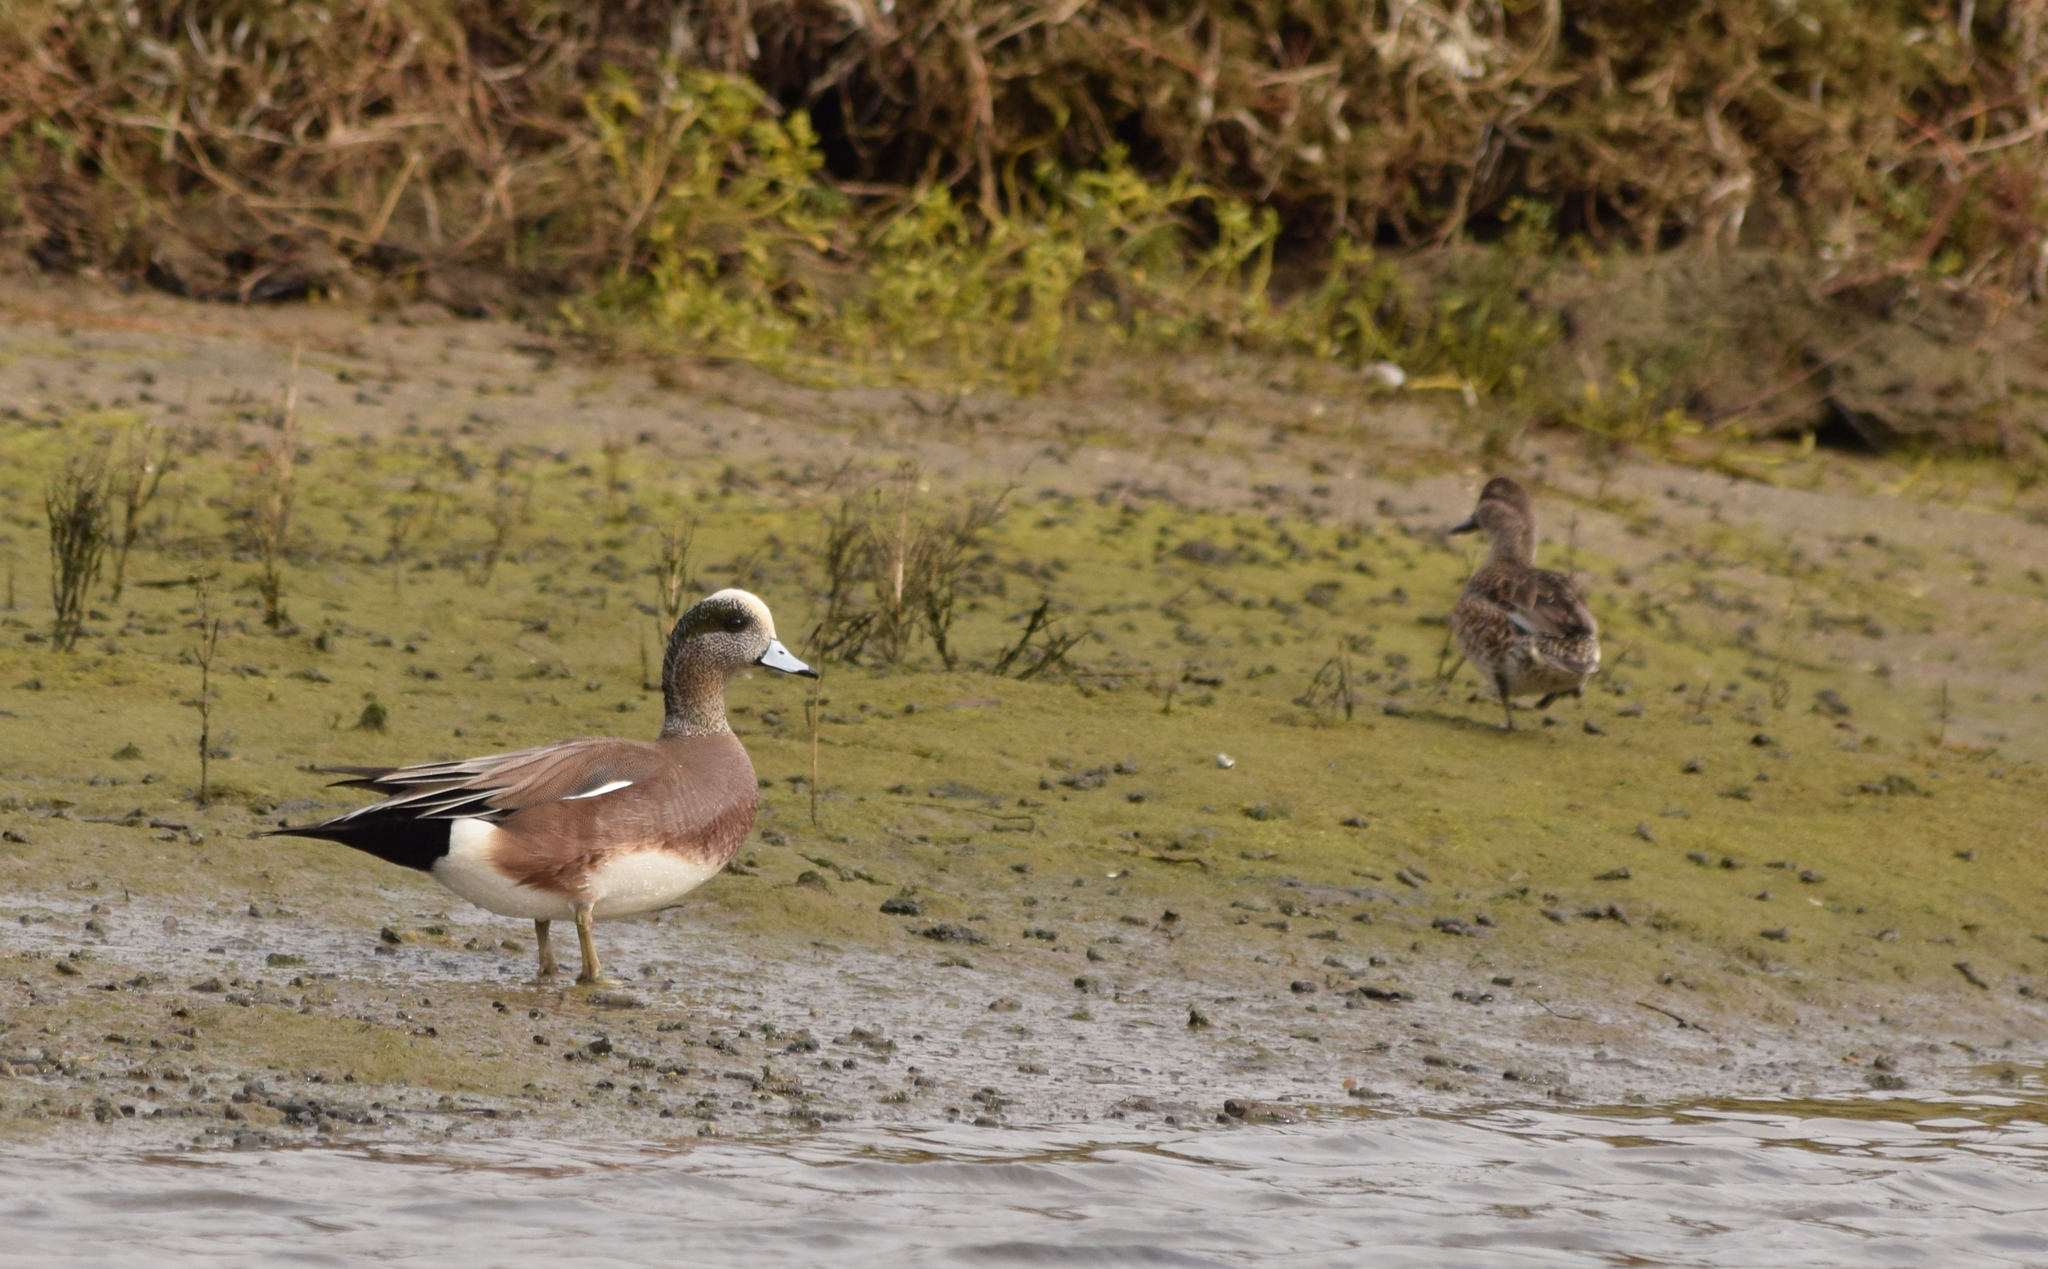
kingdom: Animalia
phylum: Chordata
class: Aves
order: Anseriformes
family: Anatidae
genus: Mareca
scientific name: Mareca americana
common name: American wigeon
